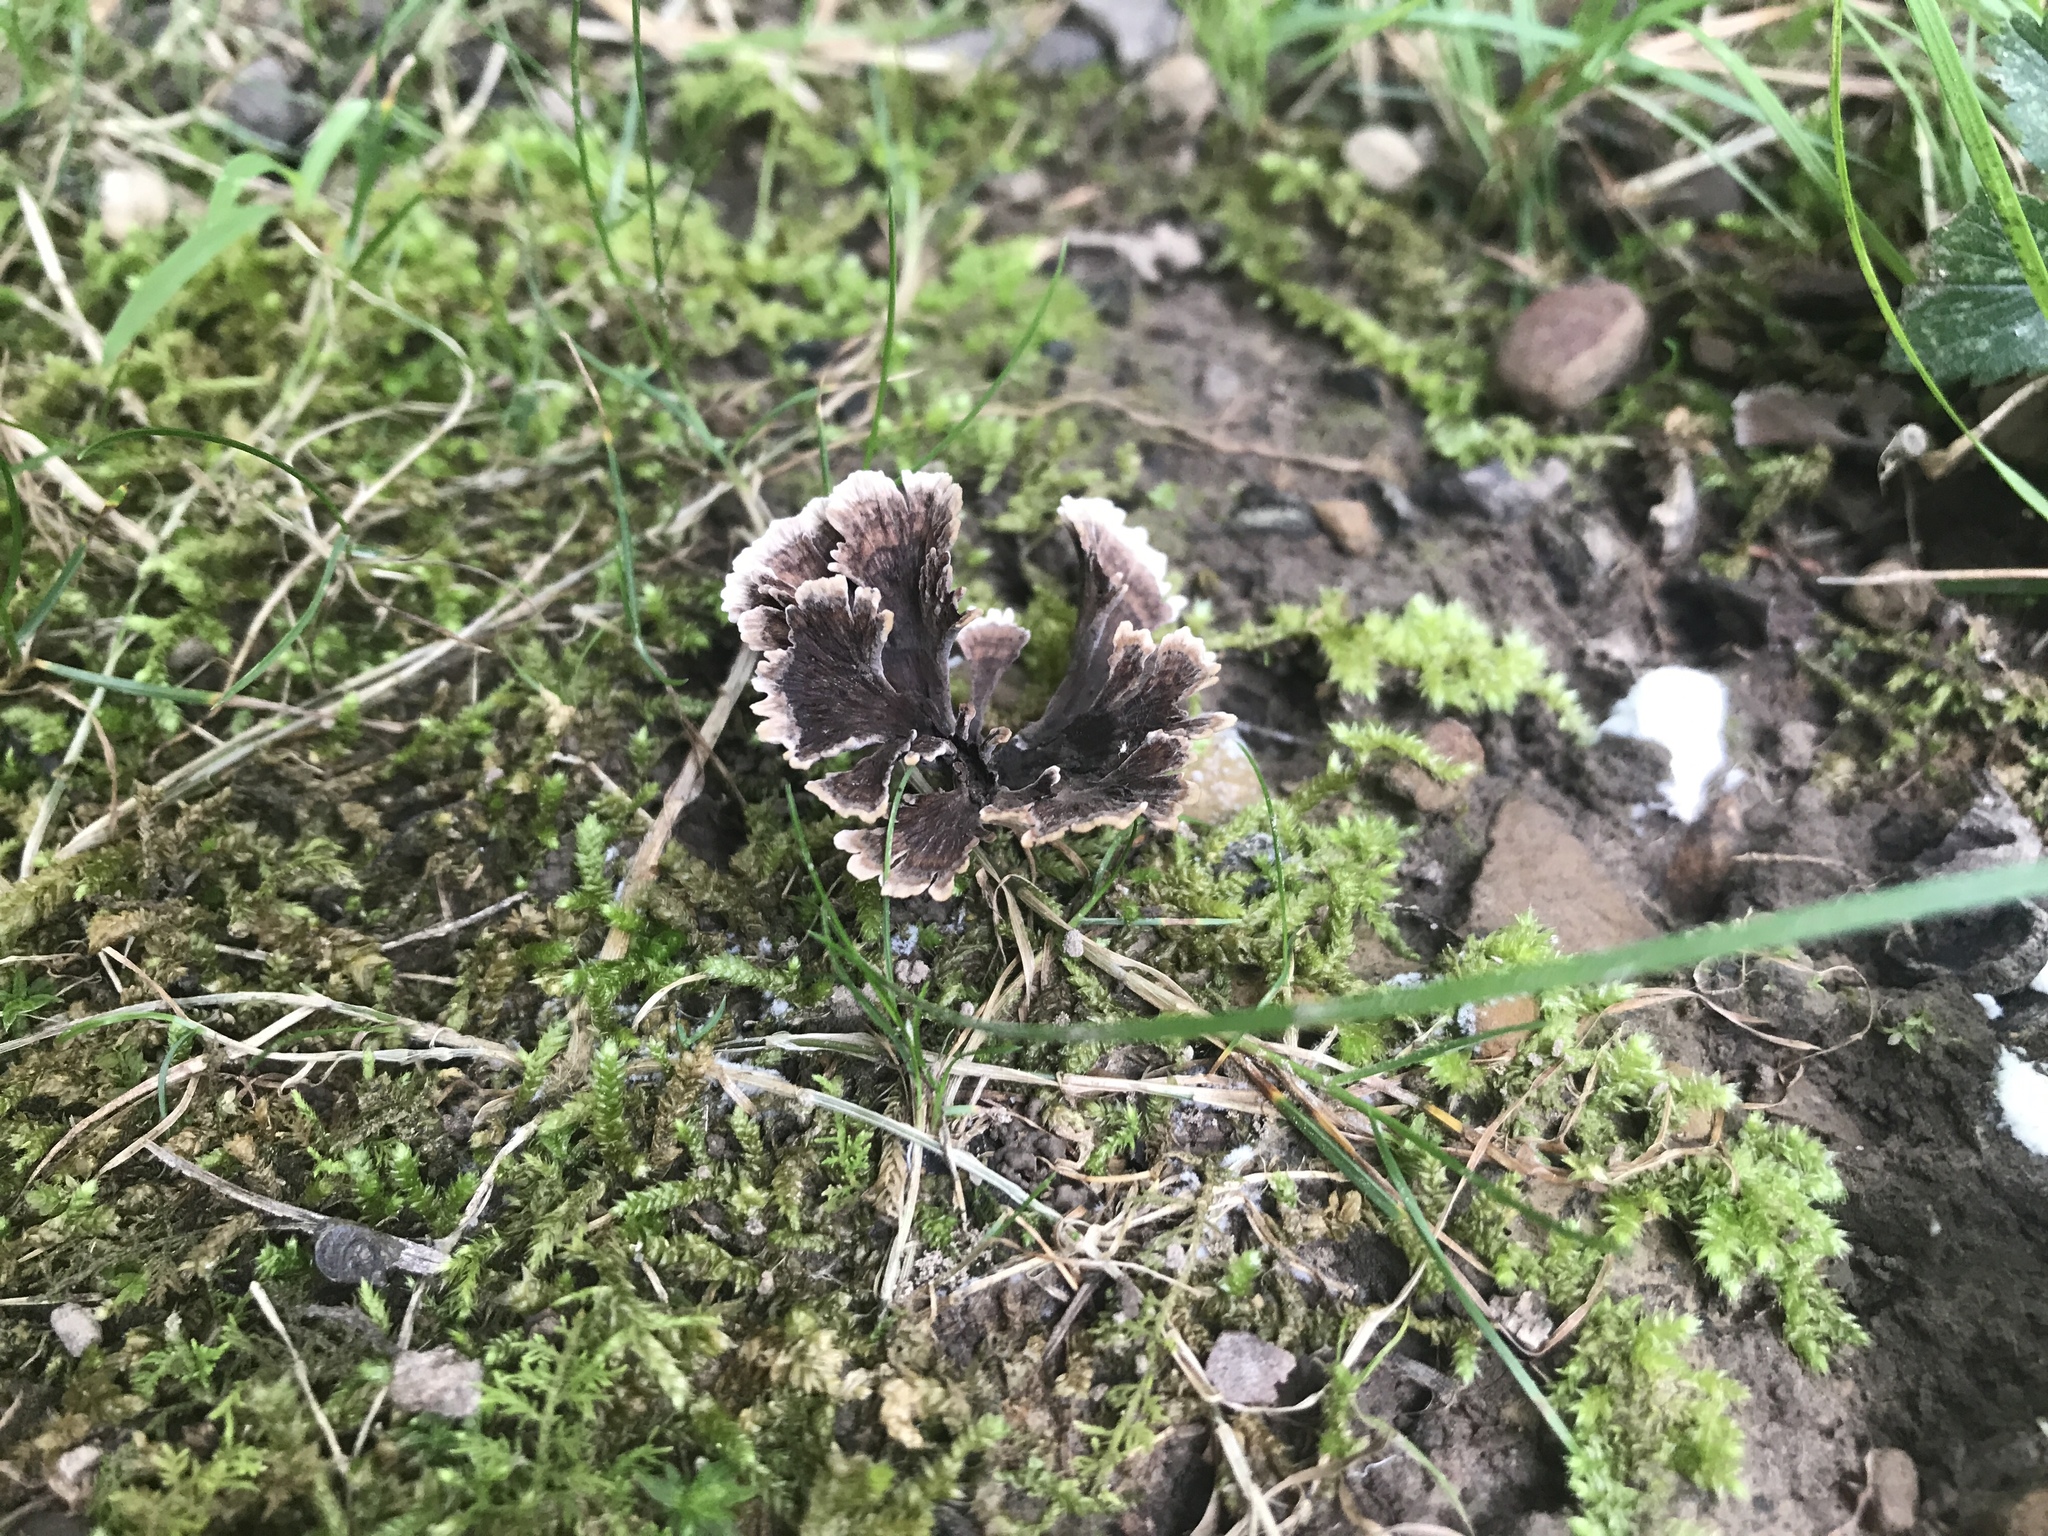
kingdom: Fungi
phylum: Basidiomycota
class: Agaricomycetes
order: Thelephorales
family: Thelephoraceae
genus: Thelephora
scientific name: Thelephora multipartita
